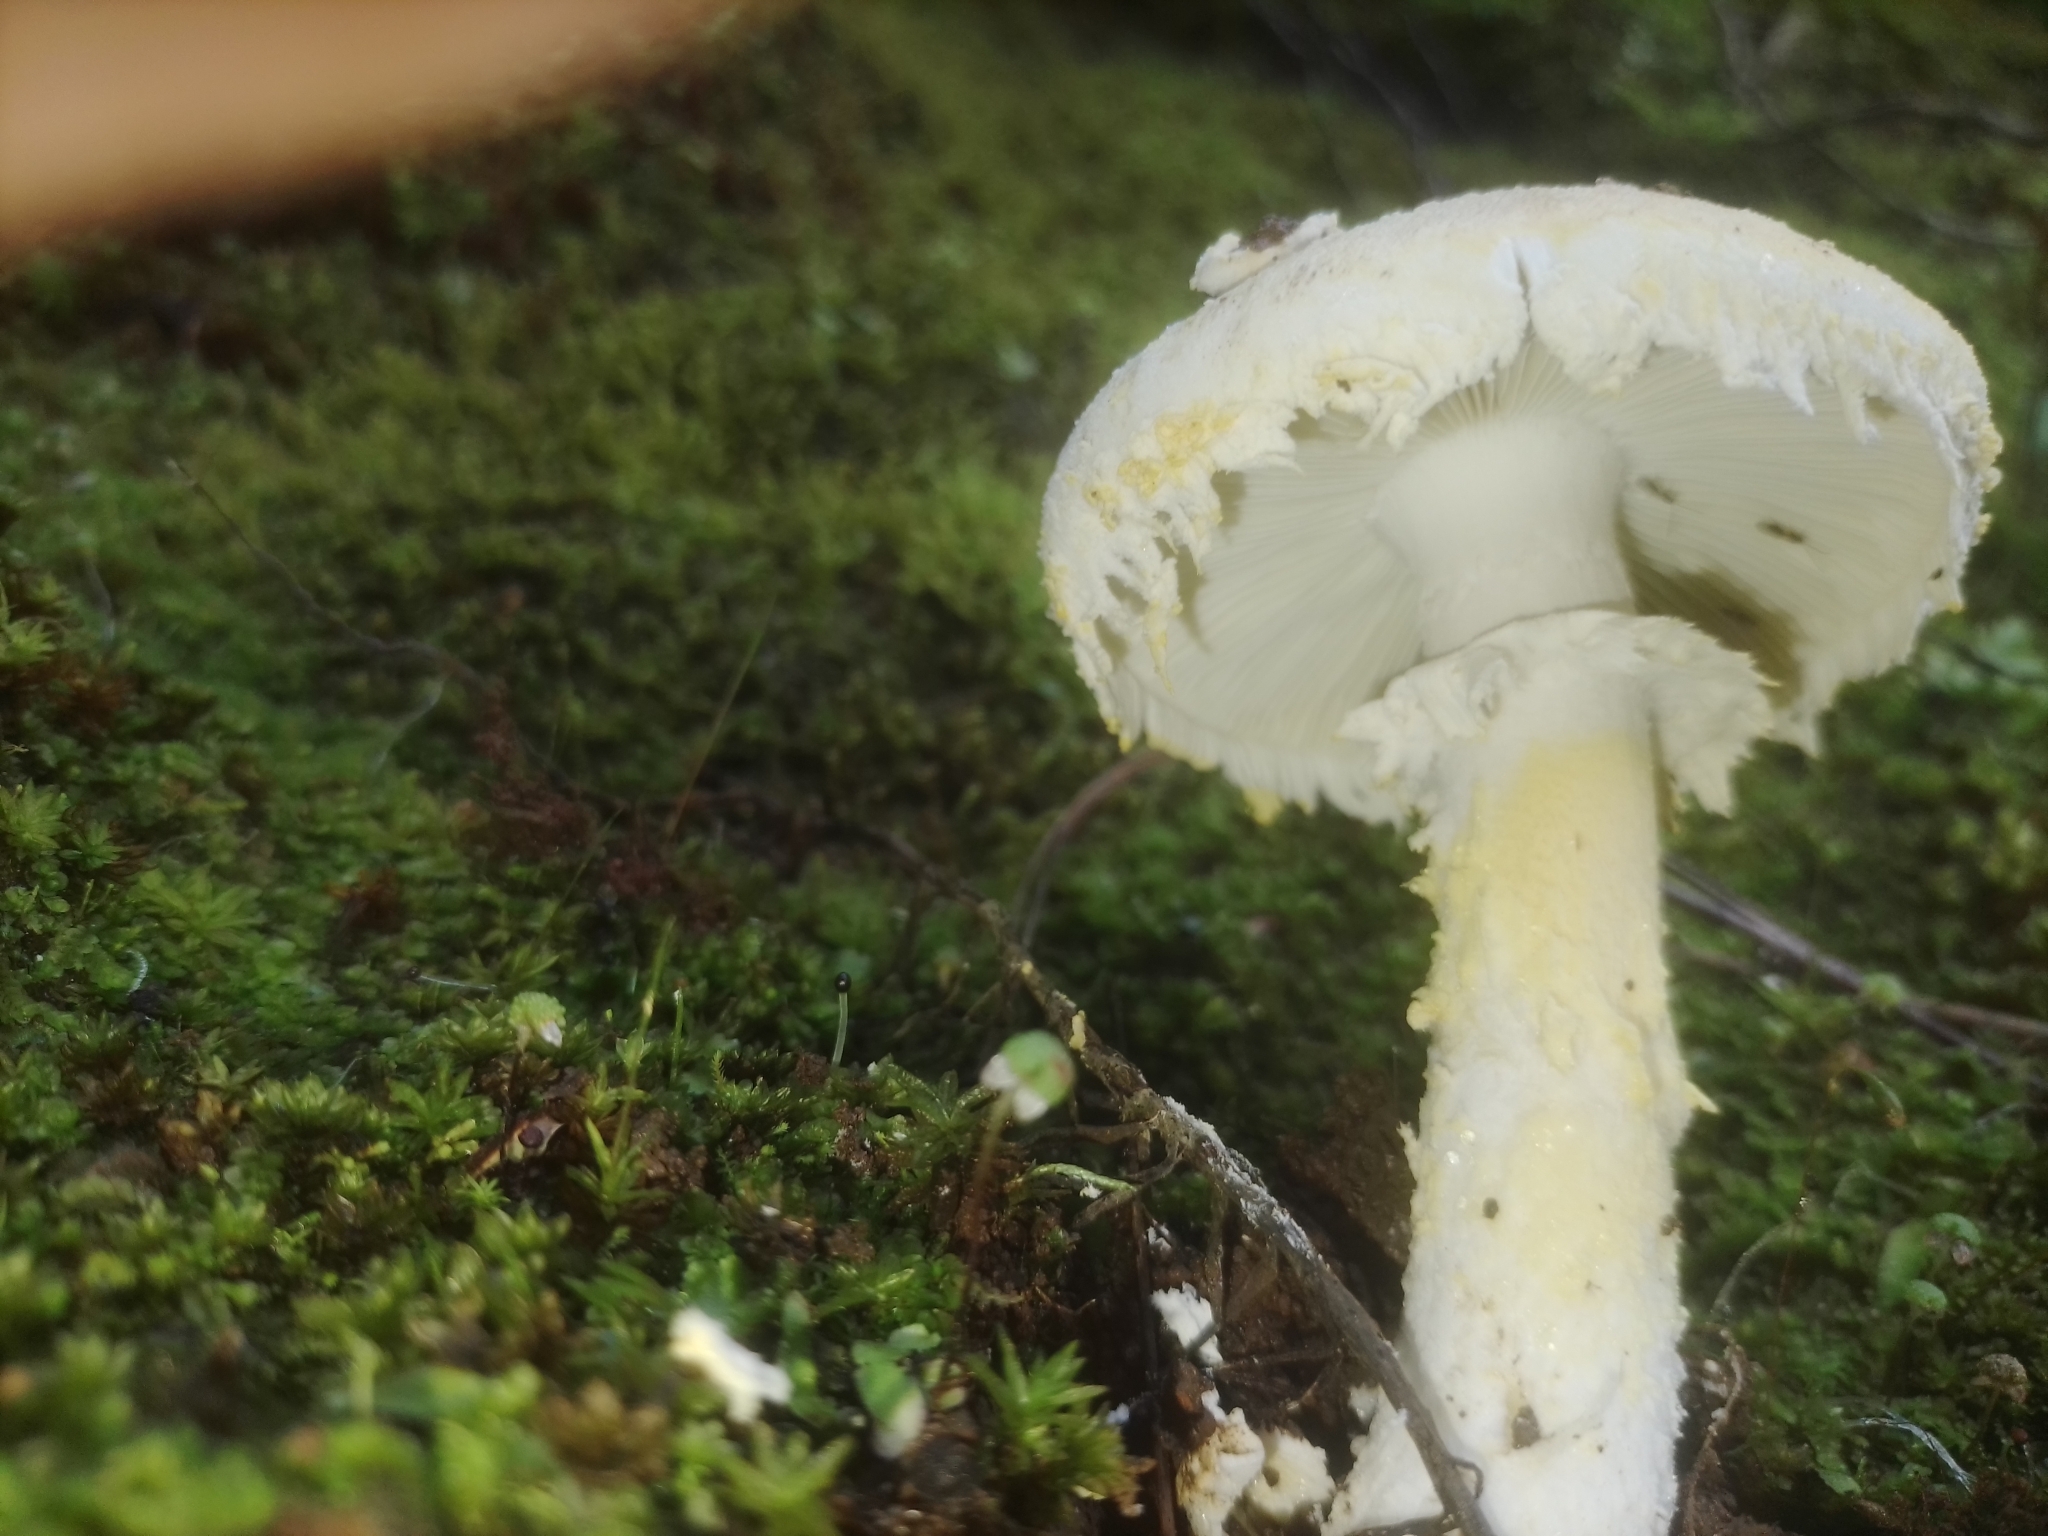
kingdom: Fungi
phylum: Basidiomycota
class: Agaricomycetes
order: Agaricales
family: Amanitaceae
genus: Amanita
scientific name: Amanita rhoadsii
